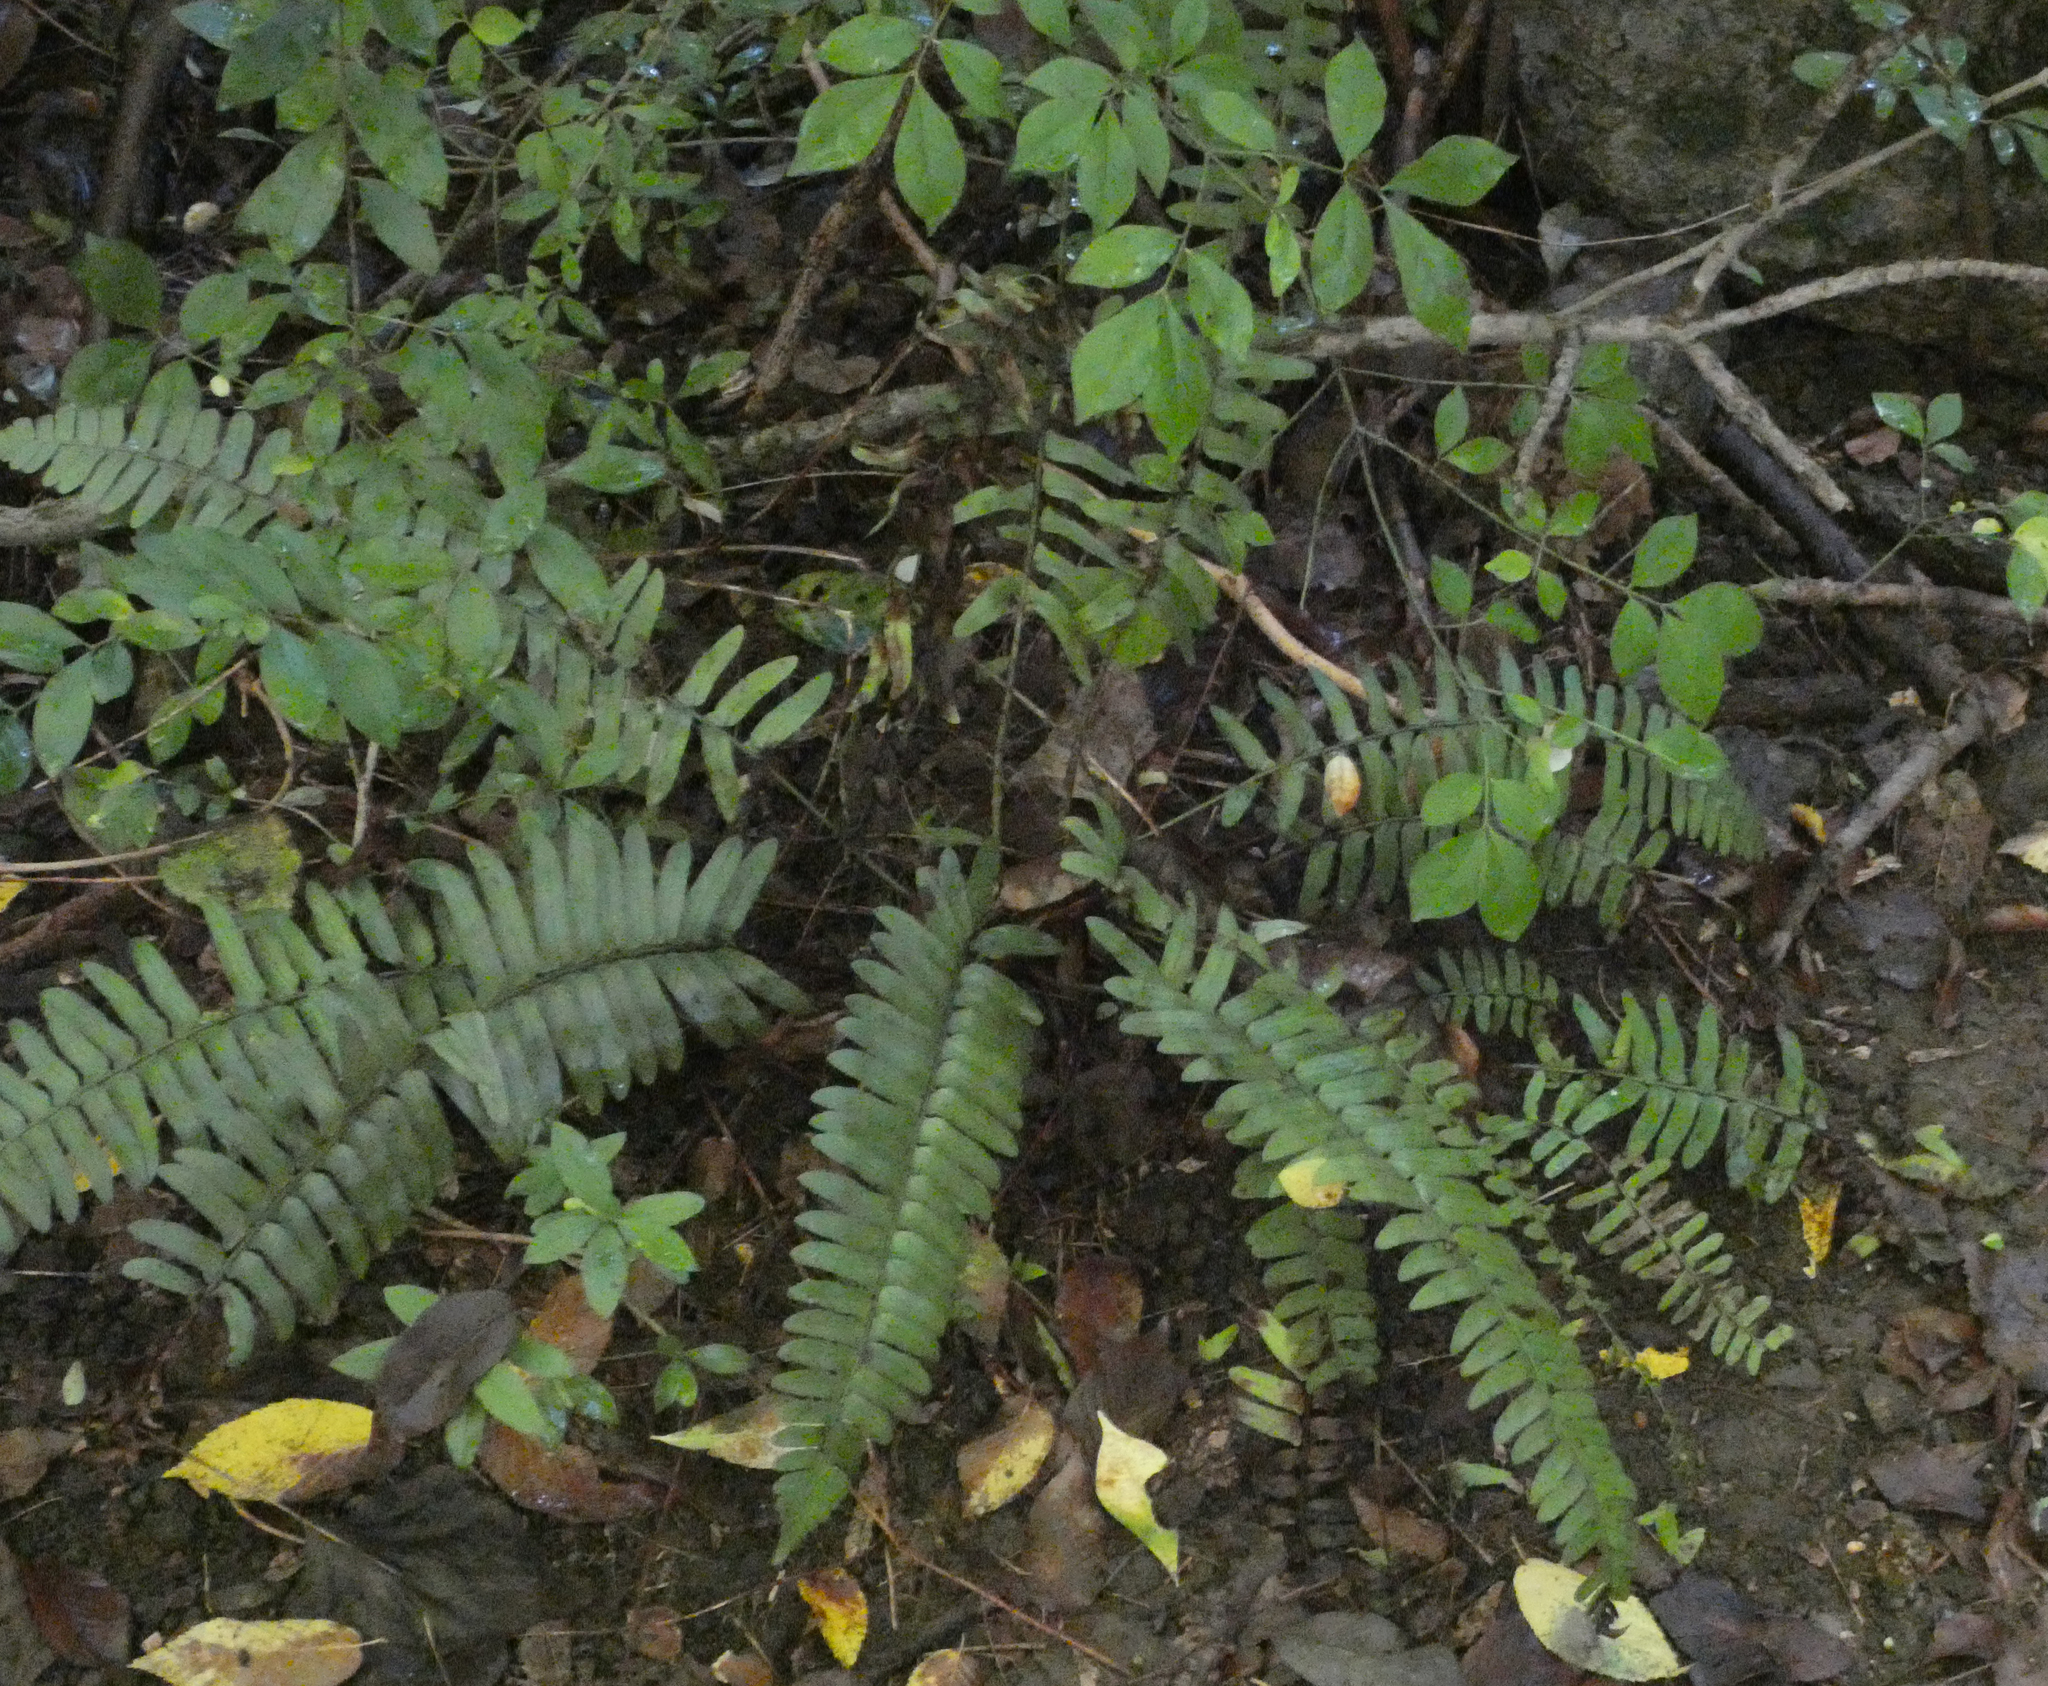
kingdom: Plantae
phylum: Tracheophyta
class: Polypodiopsida
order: Polypodiales
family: Dryopteridaceae
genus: Polystichum
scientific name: Polystichum acrostichoides
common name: Christmas fern
